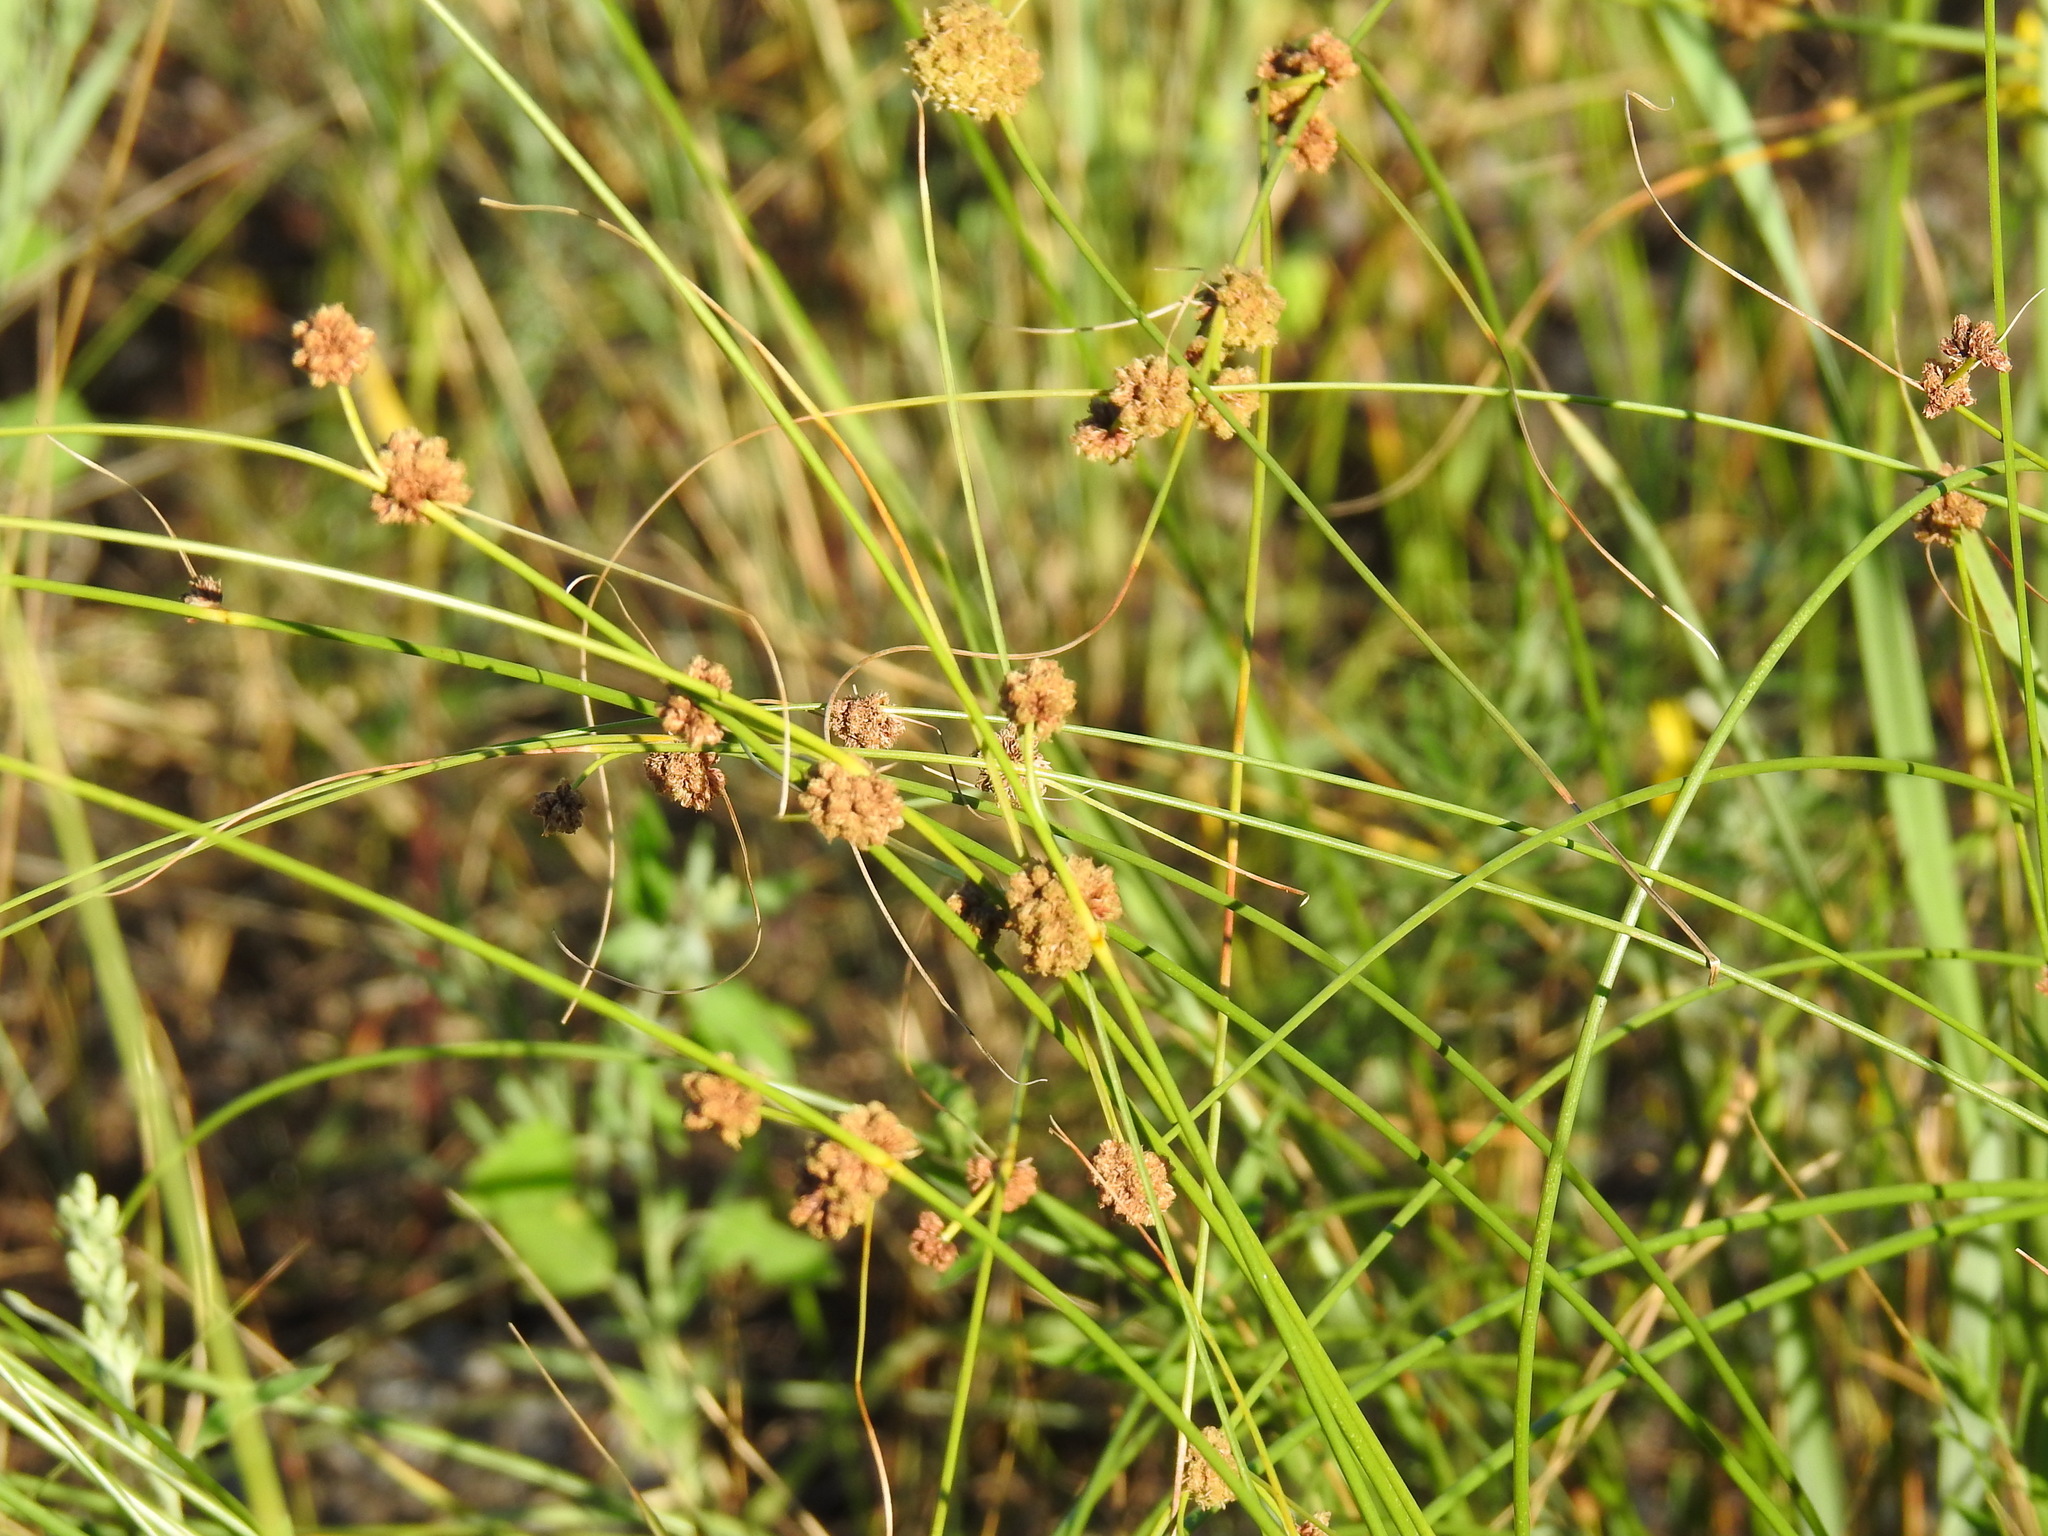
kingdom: Plantae
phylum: Tracheophyta
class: Liliopsida
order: Poales
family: Cyperaceae
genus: Scirpoides
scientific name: Scirpoides holoschoenus
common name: Round-headed club-rush
